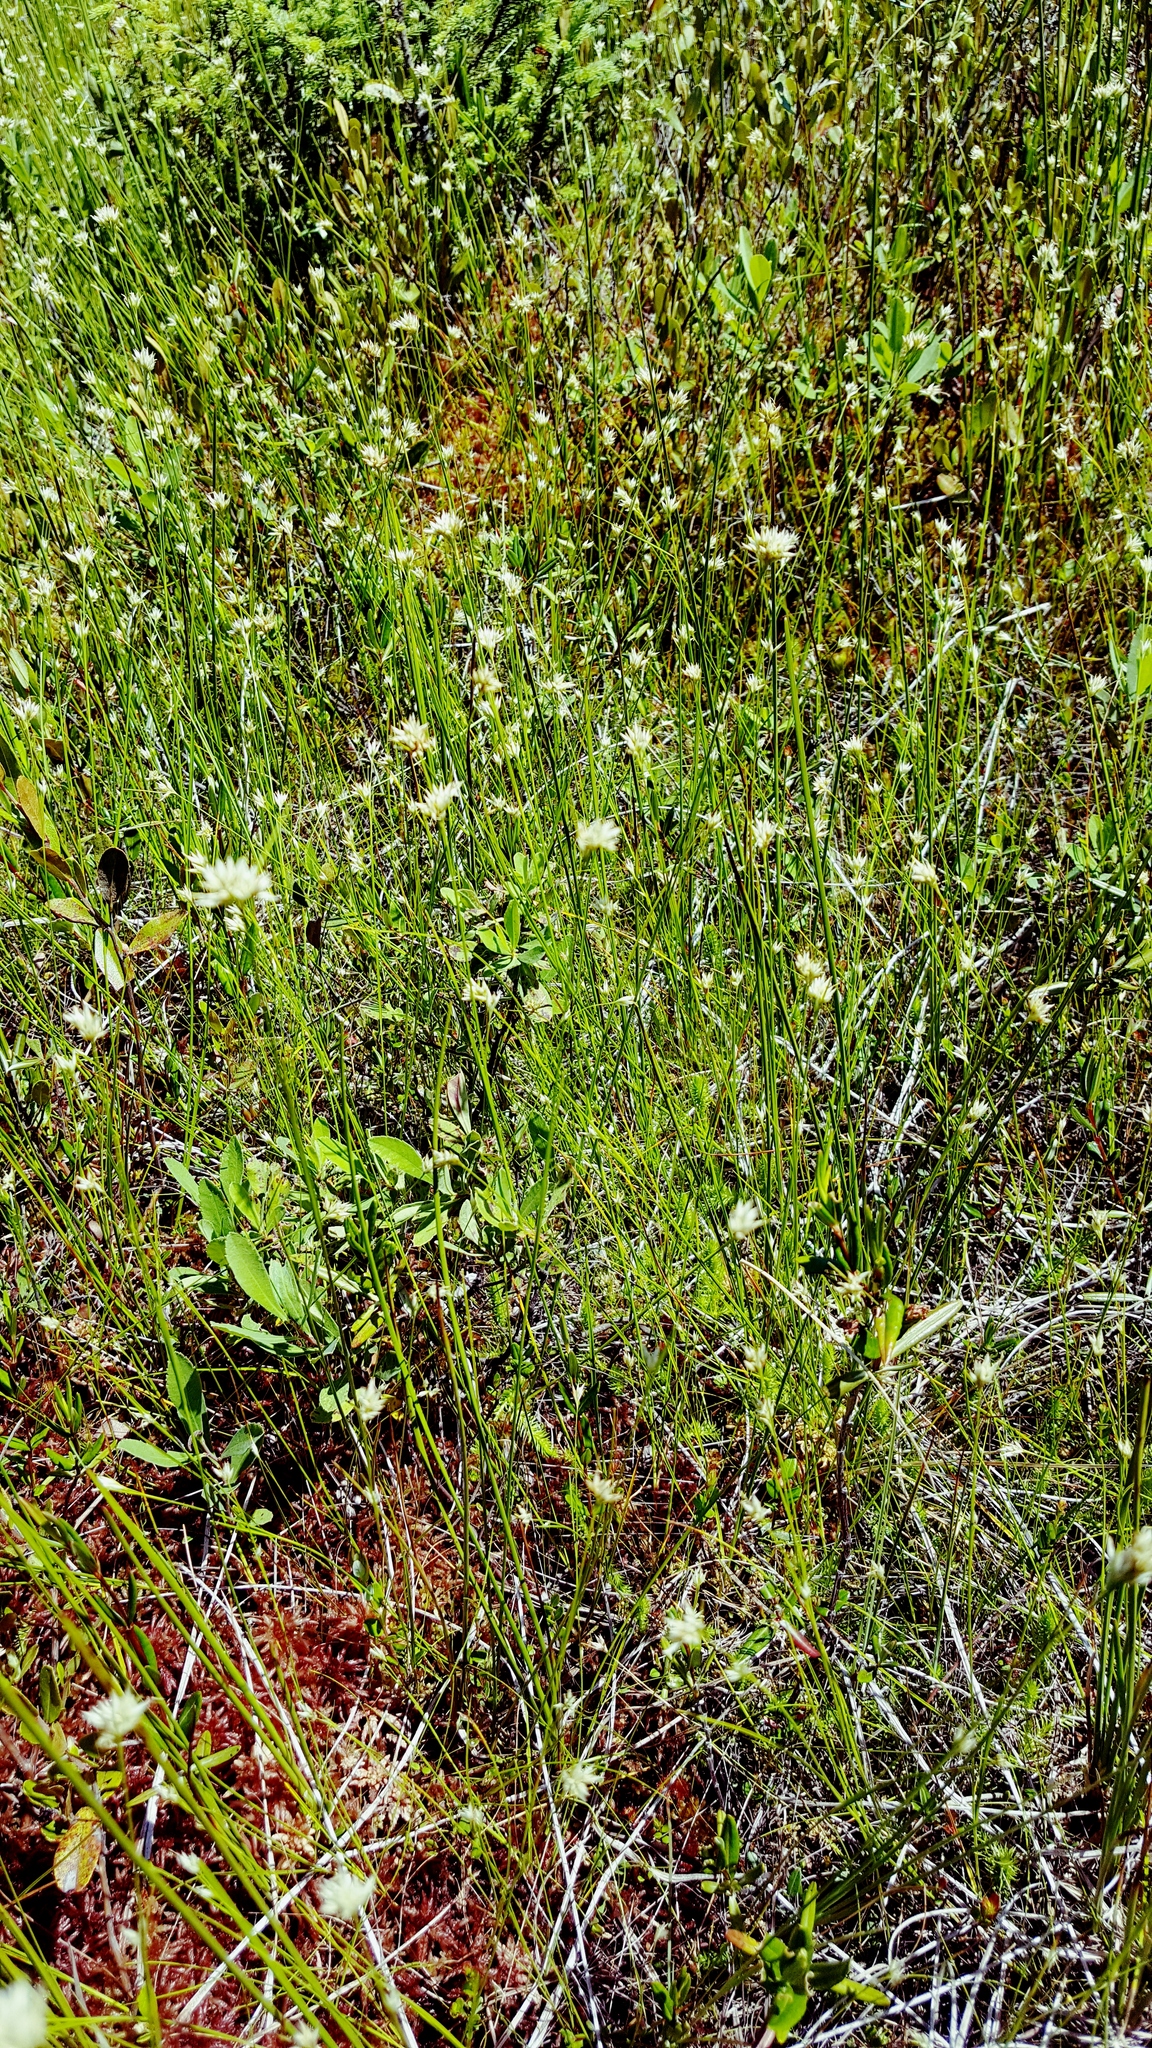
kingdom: Plantae
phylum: Tracheophyta
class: Liliopsida
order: Poales
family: Cyperaceae
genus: Rhynchospora
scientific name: Rhynchospora alba
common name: White beak-sedge
